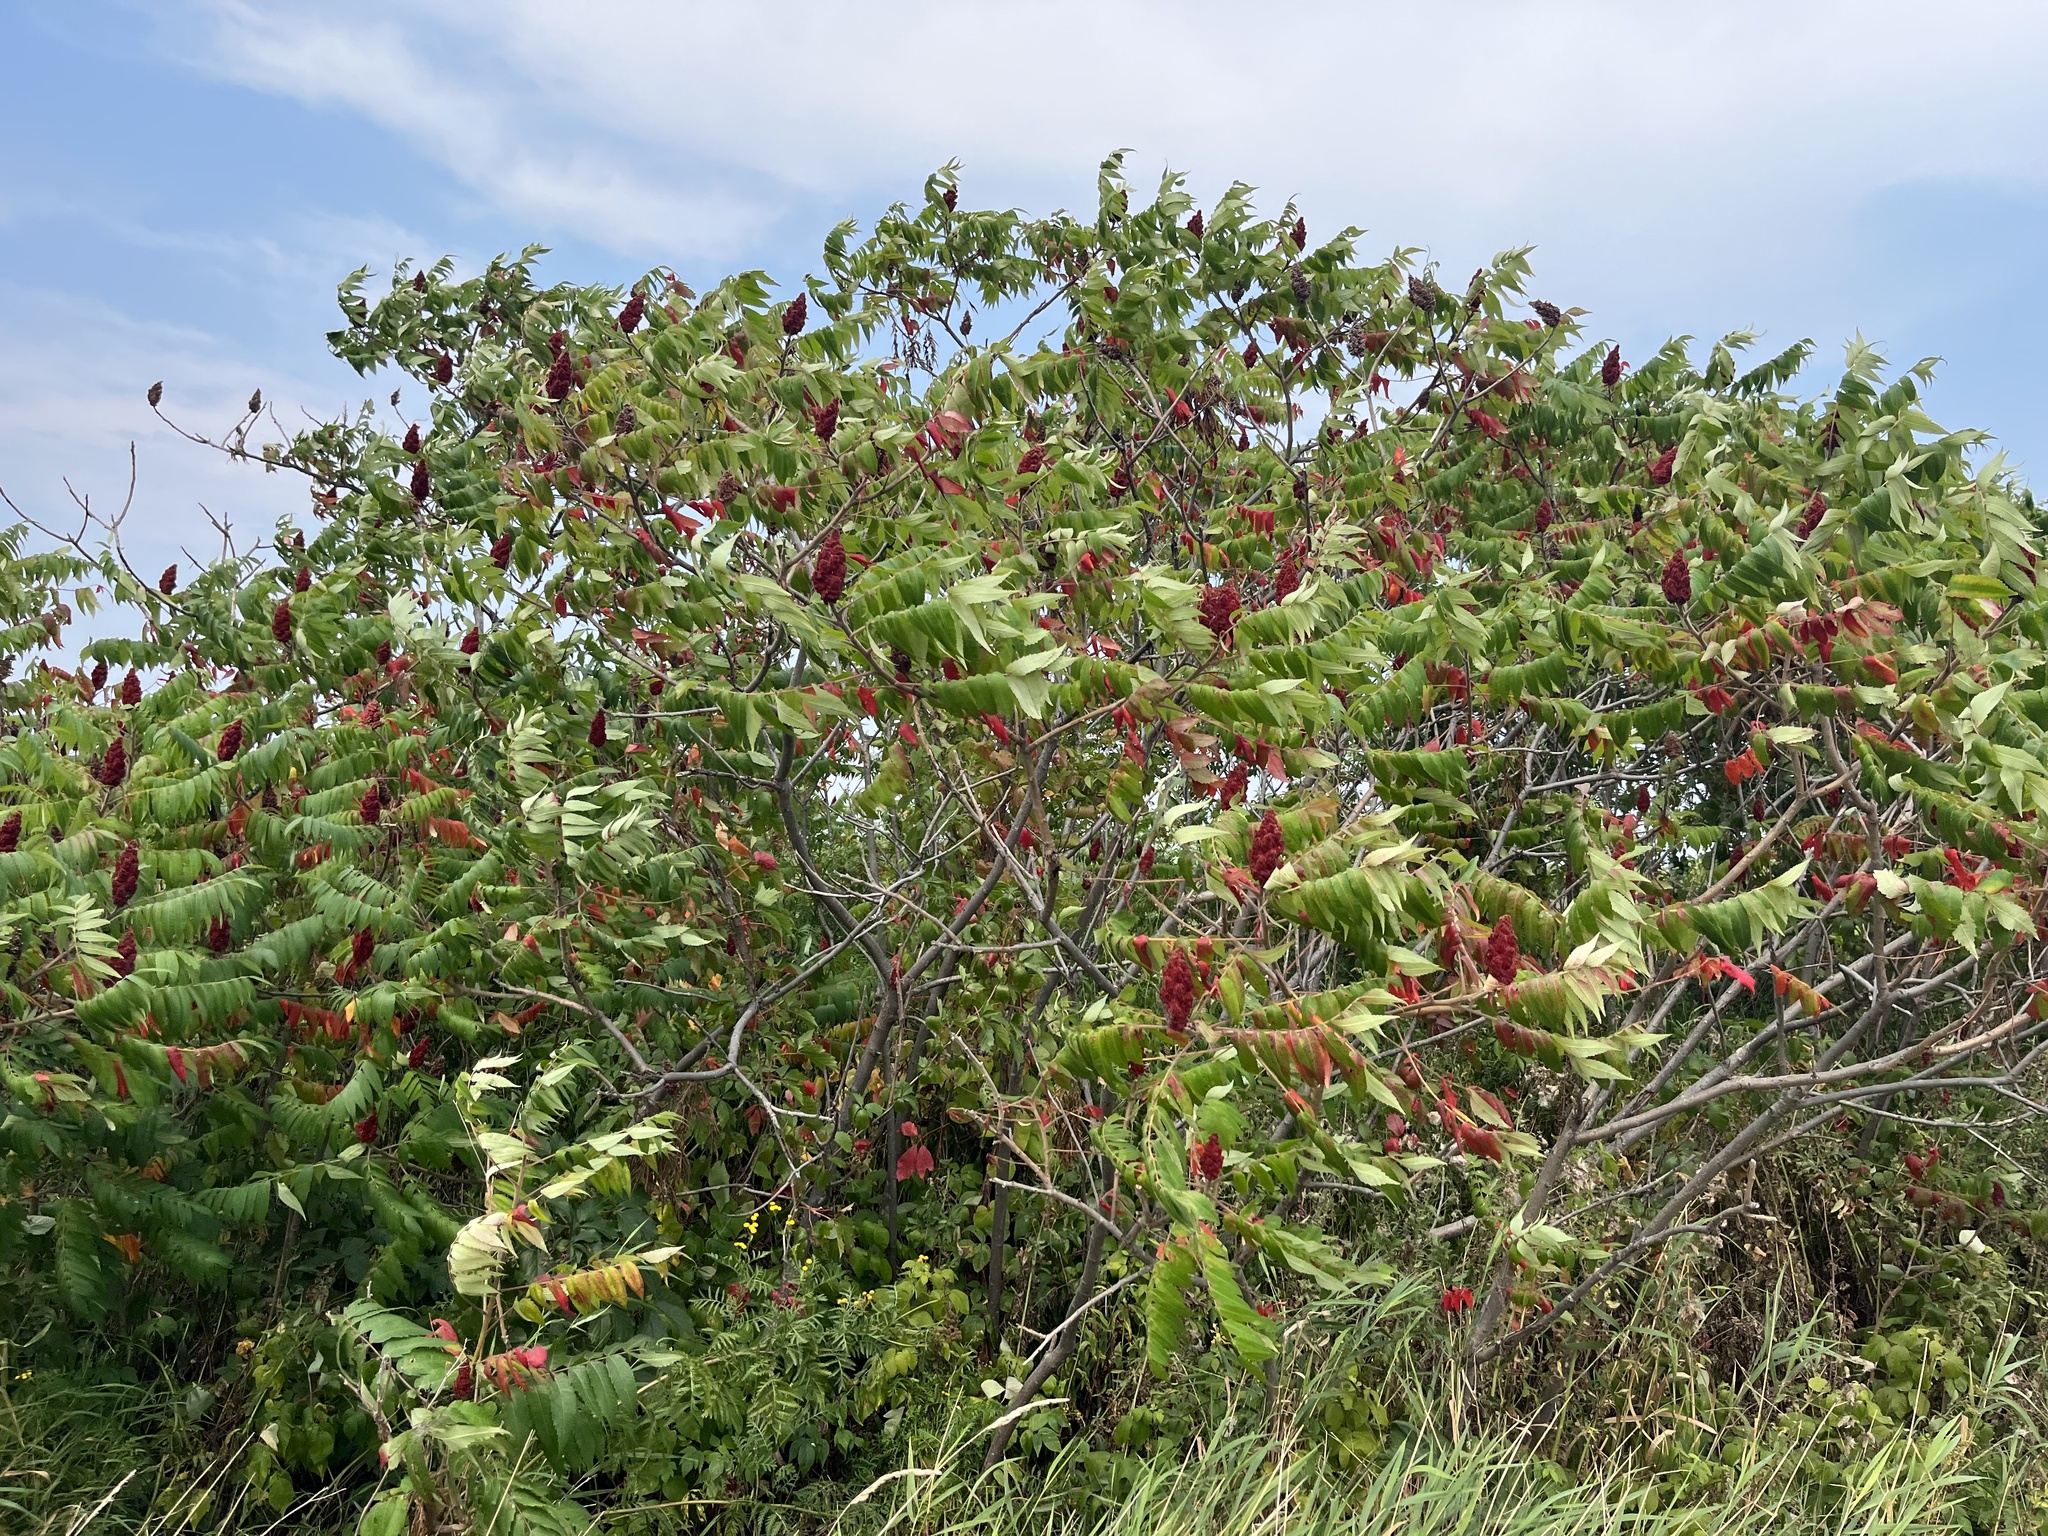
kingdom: Plantae
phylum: Tracheophyta
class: Magnoliopsida
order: Sapindales
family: Anacardiaceae
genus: Rhus
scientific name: Rhus typhina
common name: Staghorn sumac
